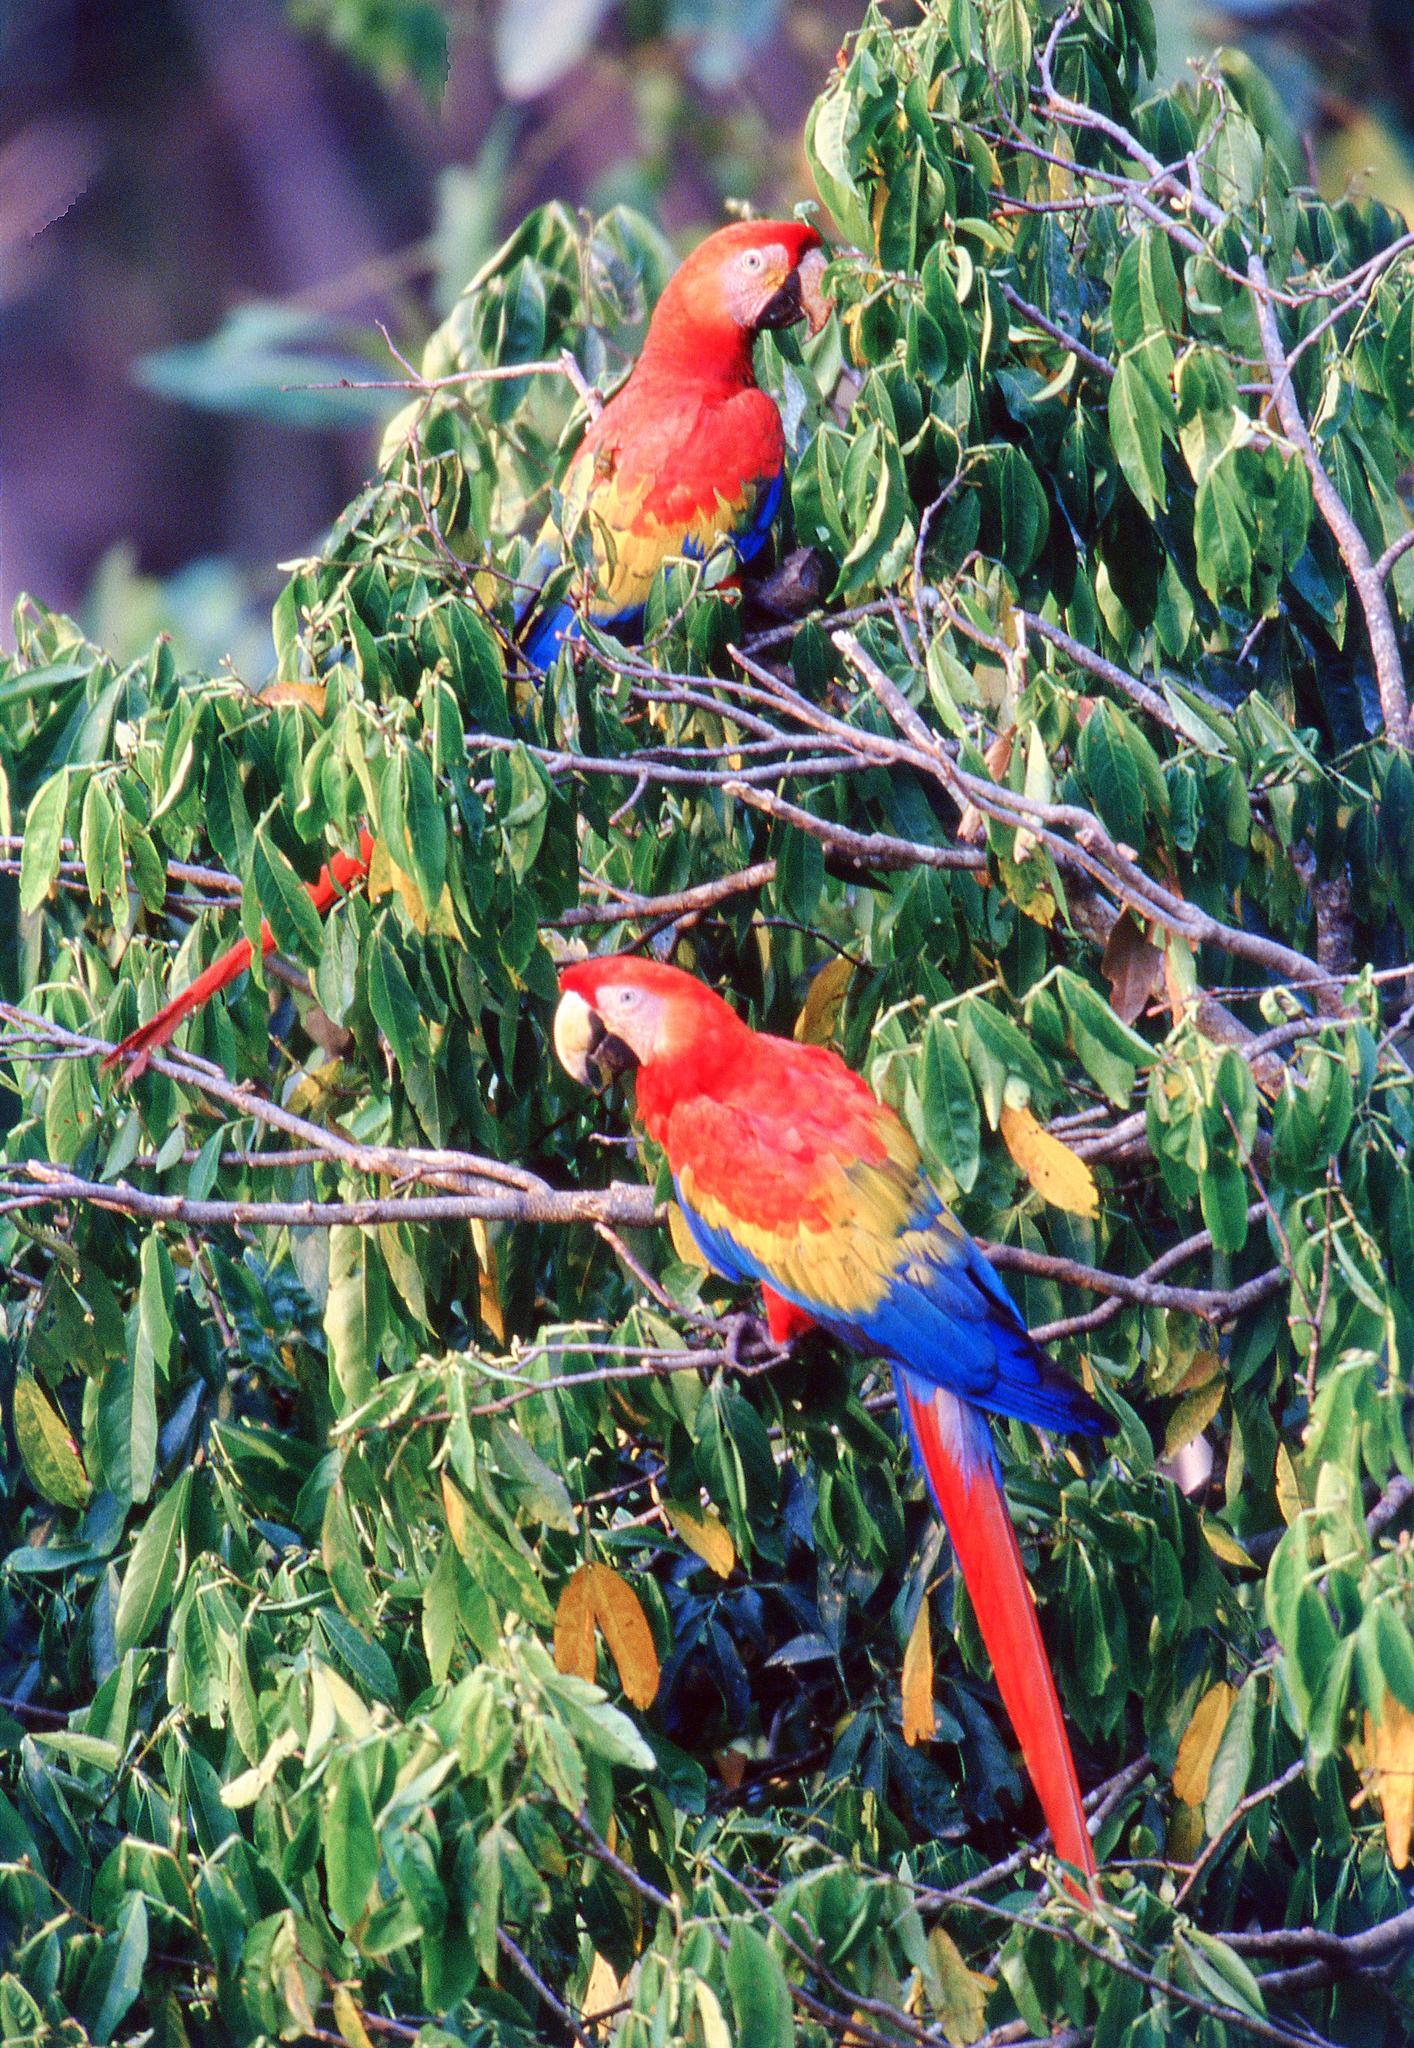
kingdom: Animalia
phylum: Chordata
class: Aves
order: Psittaciformes
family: Psittacidae
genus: Ara
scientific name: Ara macao
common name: Scarlet macaw
